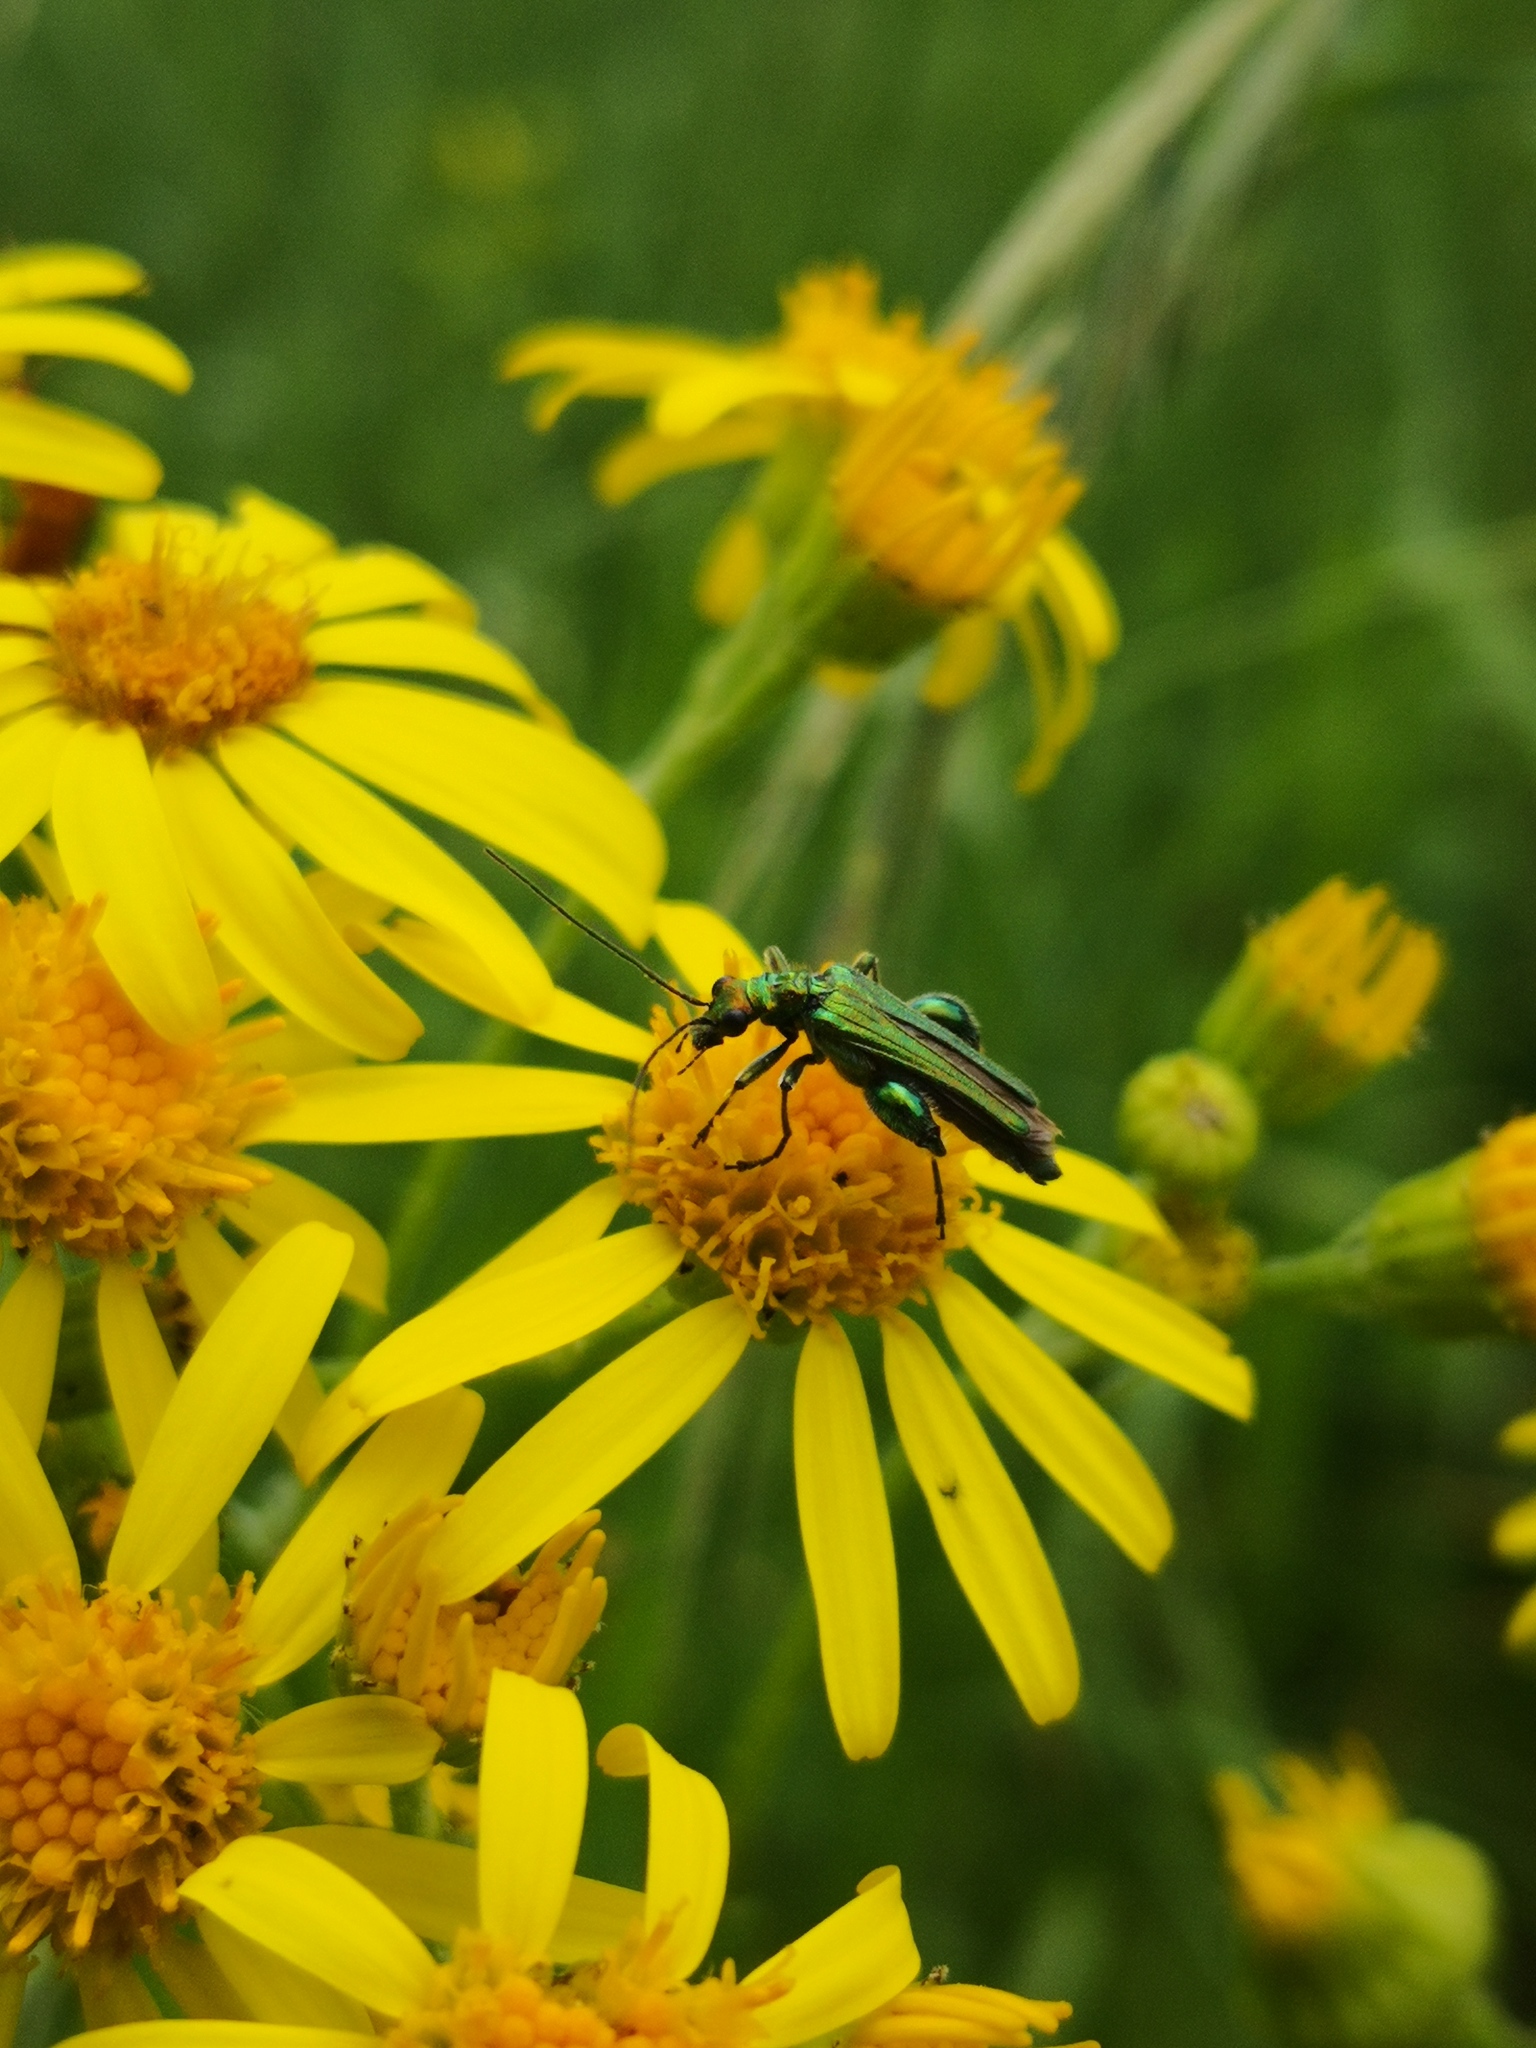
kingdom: Animalia
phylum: Arthropoda
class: Insecta
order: Coleoptera
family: Oedemeridae
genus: Oedemera
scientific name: Oedemera nobilis
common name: Swollen-thighed beetle
